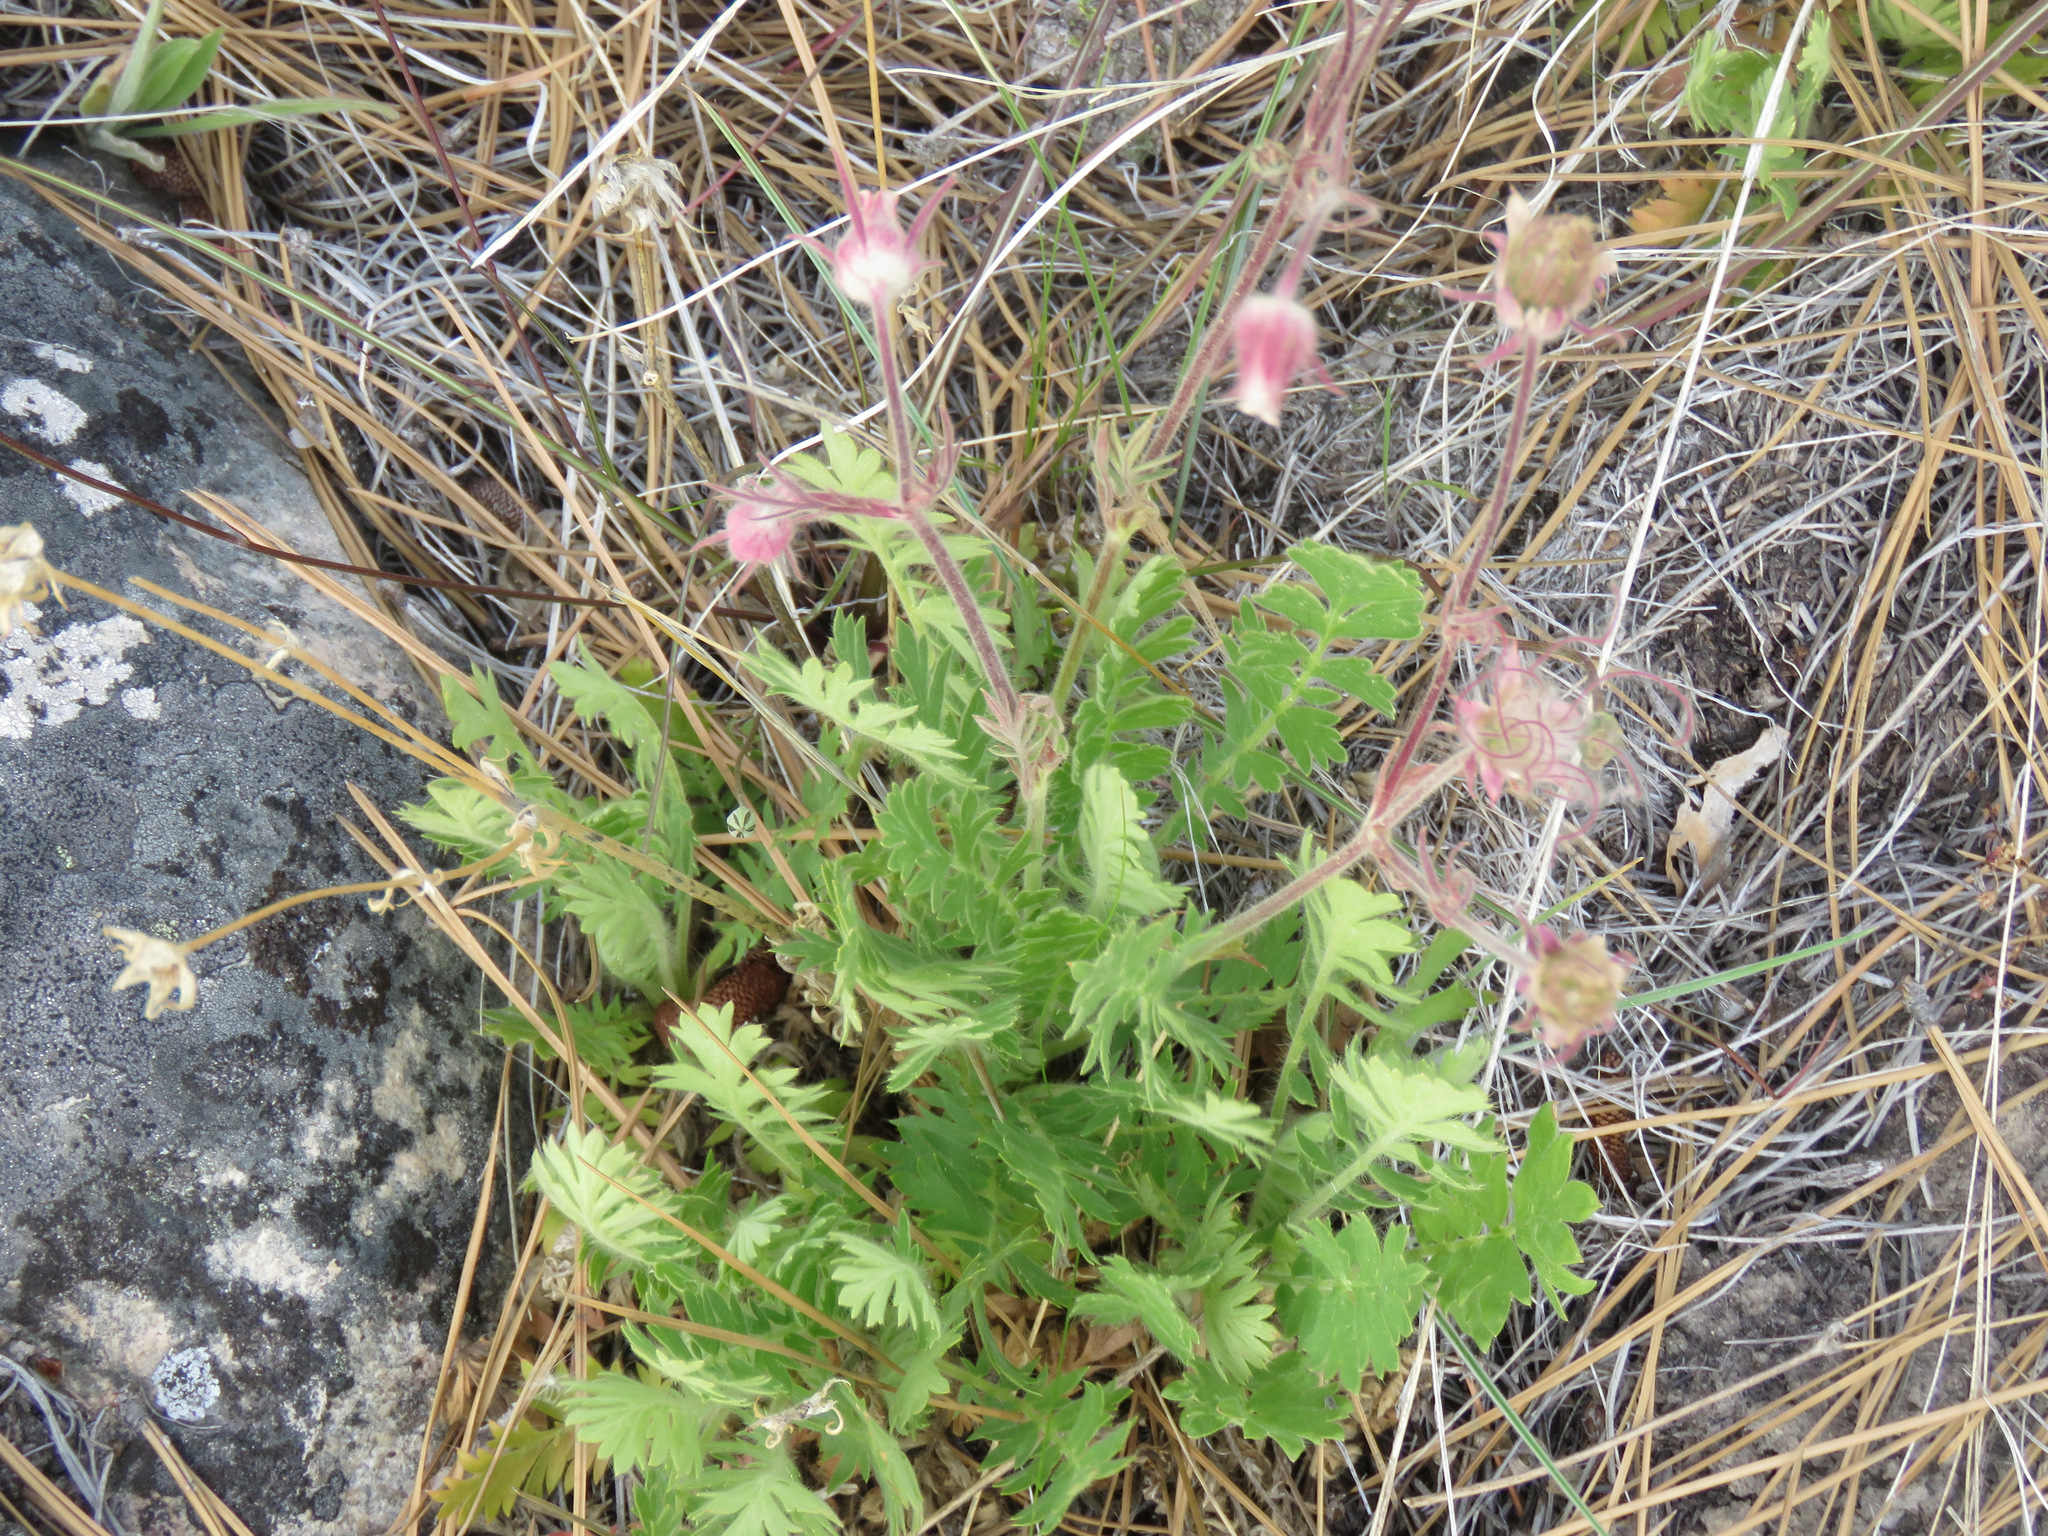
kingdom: Plantae
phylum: Tracheophyta
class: Magnoliopsida
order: Rosales
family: Rosaceae
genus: Geum
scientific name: Geum triflorum
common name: Old man's whiskers
